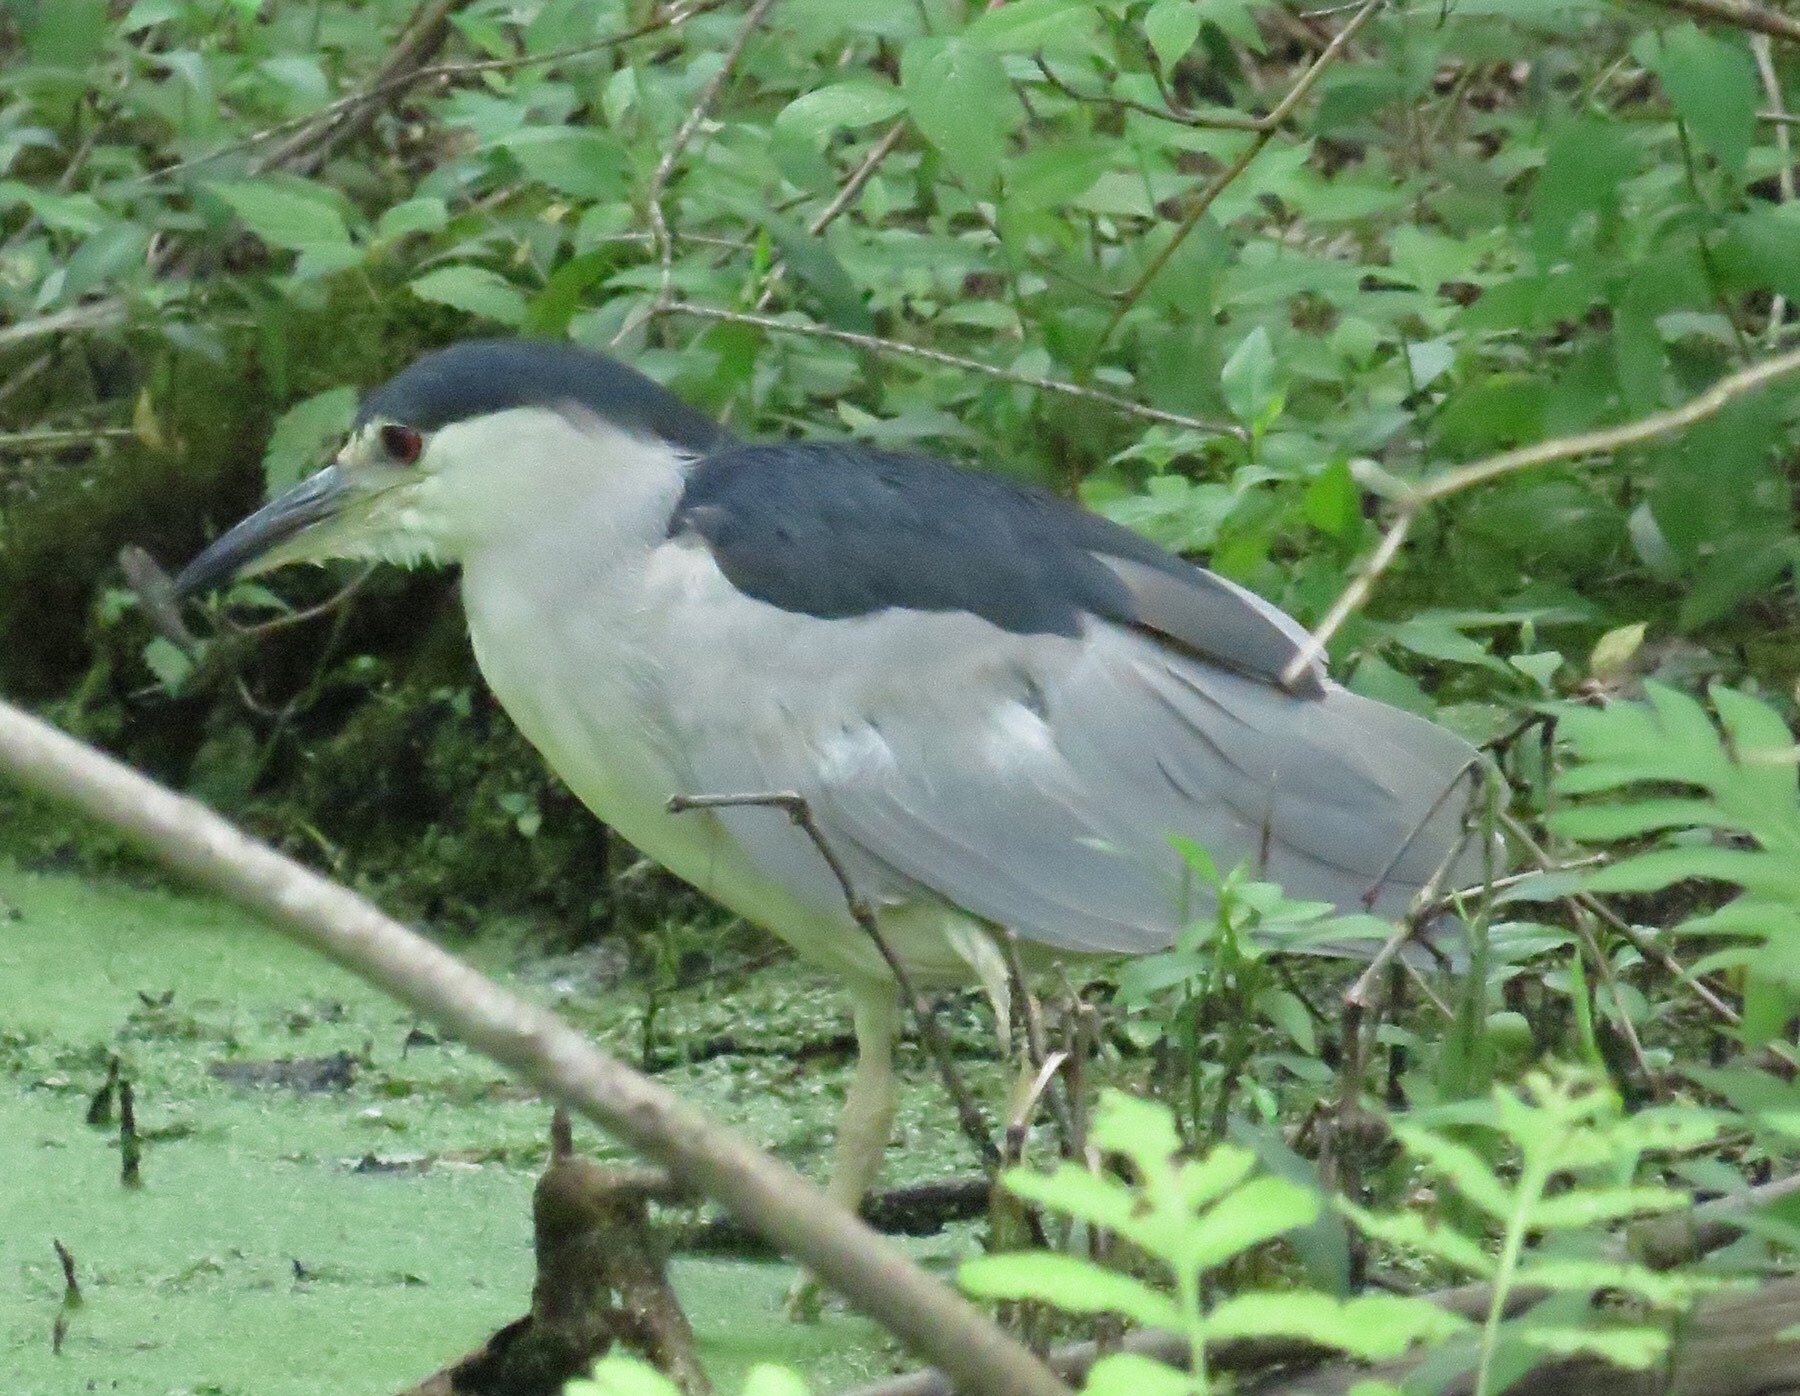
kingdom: Animalia
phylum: Chordata
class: Aves
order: Pelecaniformes
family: Ardeidae
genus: Nycticorax
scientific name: Nycticorax nycticorax
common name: Black-crowned night heron
